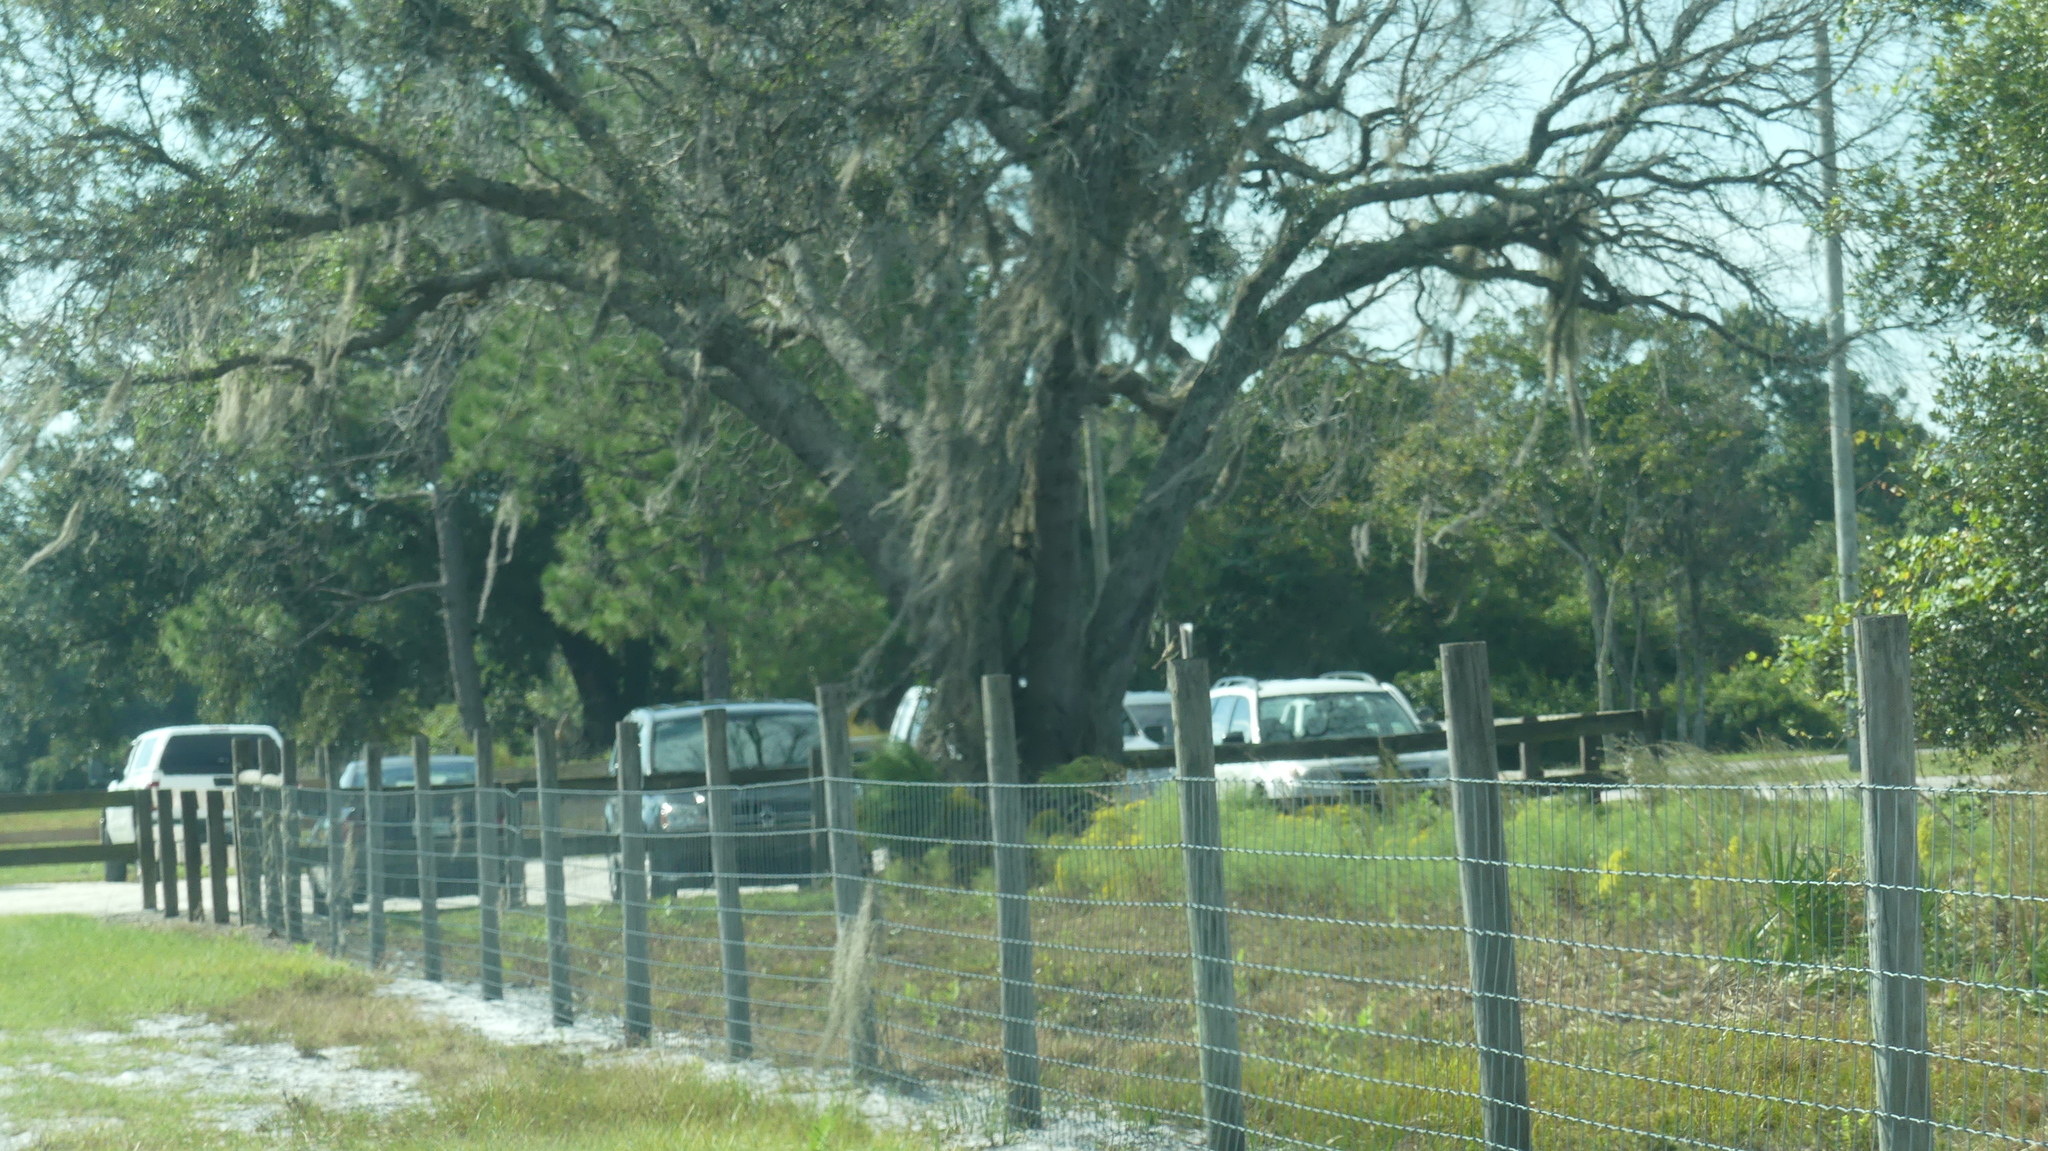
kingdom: Animalia
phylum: Chordata
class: Aves
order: Passeriformes
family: Tyrannidae
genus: Sayornis
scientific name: Sayornis phoebe
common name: Eastern phoebe
